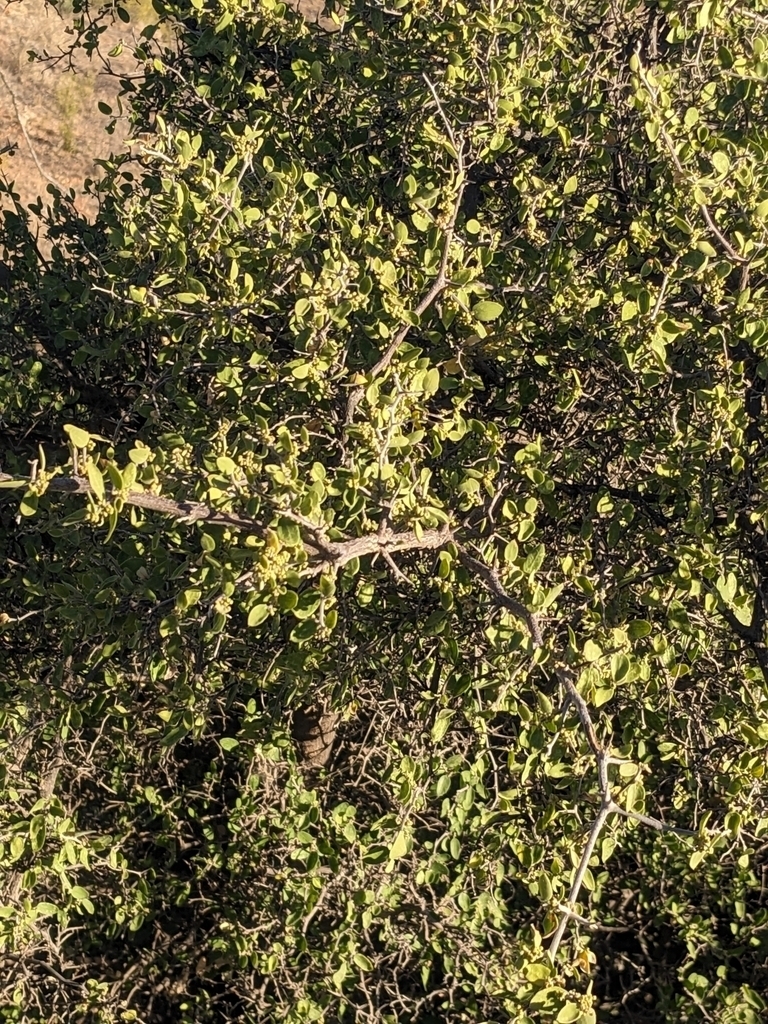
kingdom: Plantae
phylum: Tracheophyta
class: Magnoliopsida
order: Rosales
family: Cannabaceae
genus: Celtis
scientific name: Celtis pallida
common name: Desert hackberry
